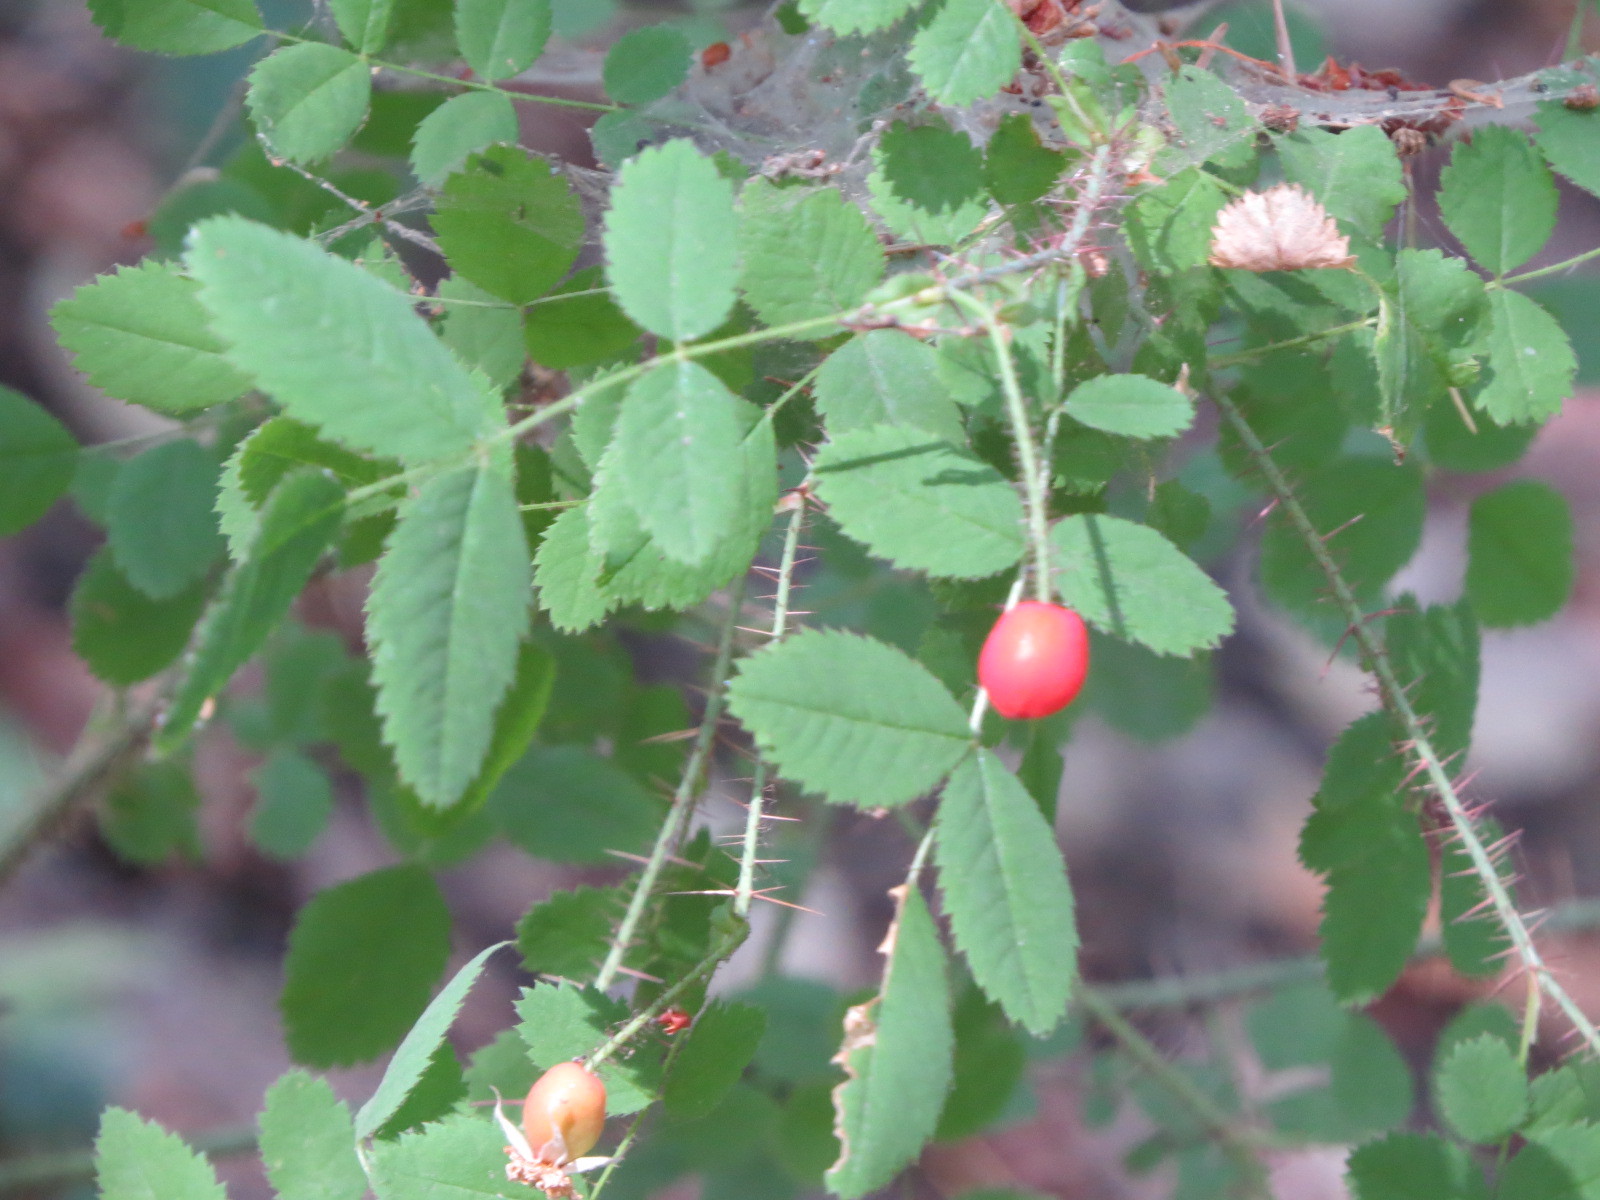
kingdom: Plantae
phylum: Tracheophyta
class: Magnoliopsida
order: Rosales
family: Rosaceae
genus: Rosa
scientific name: Rosa gymnocarpa
